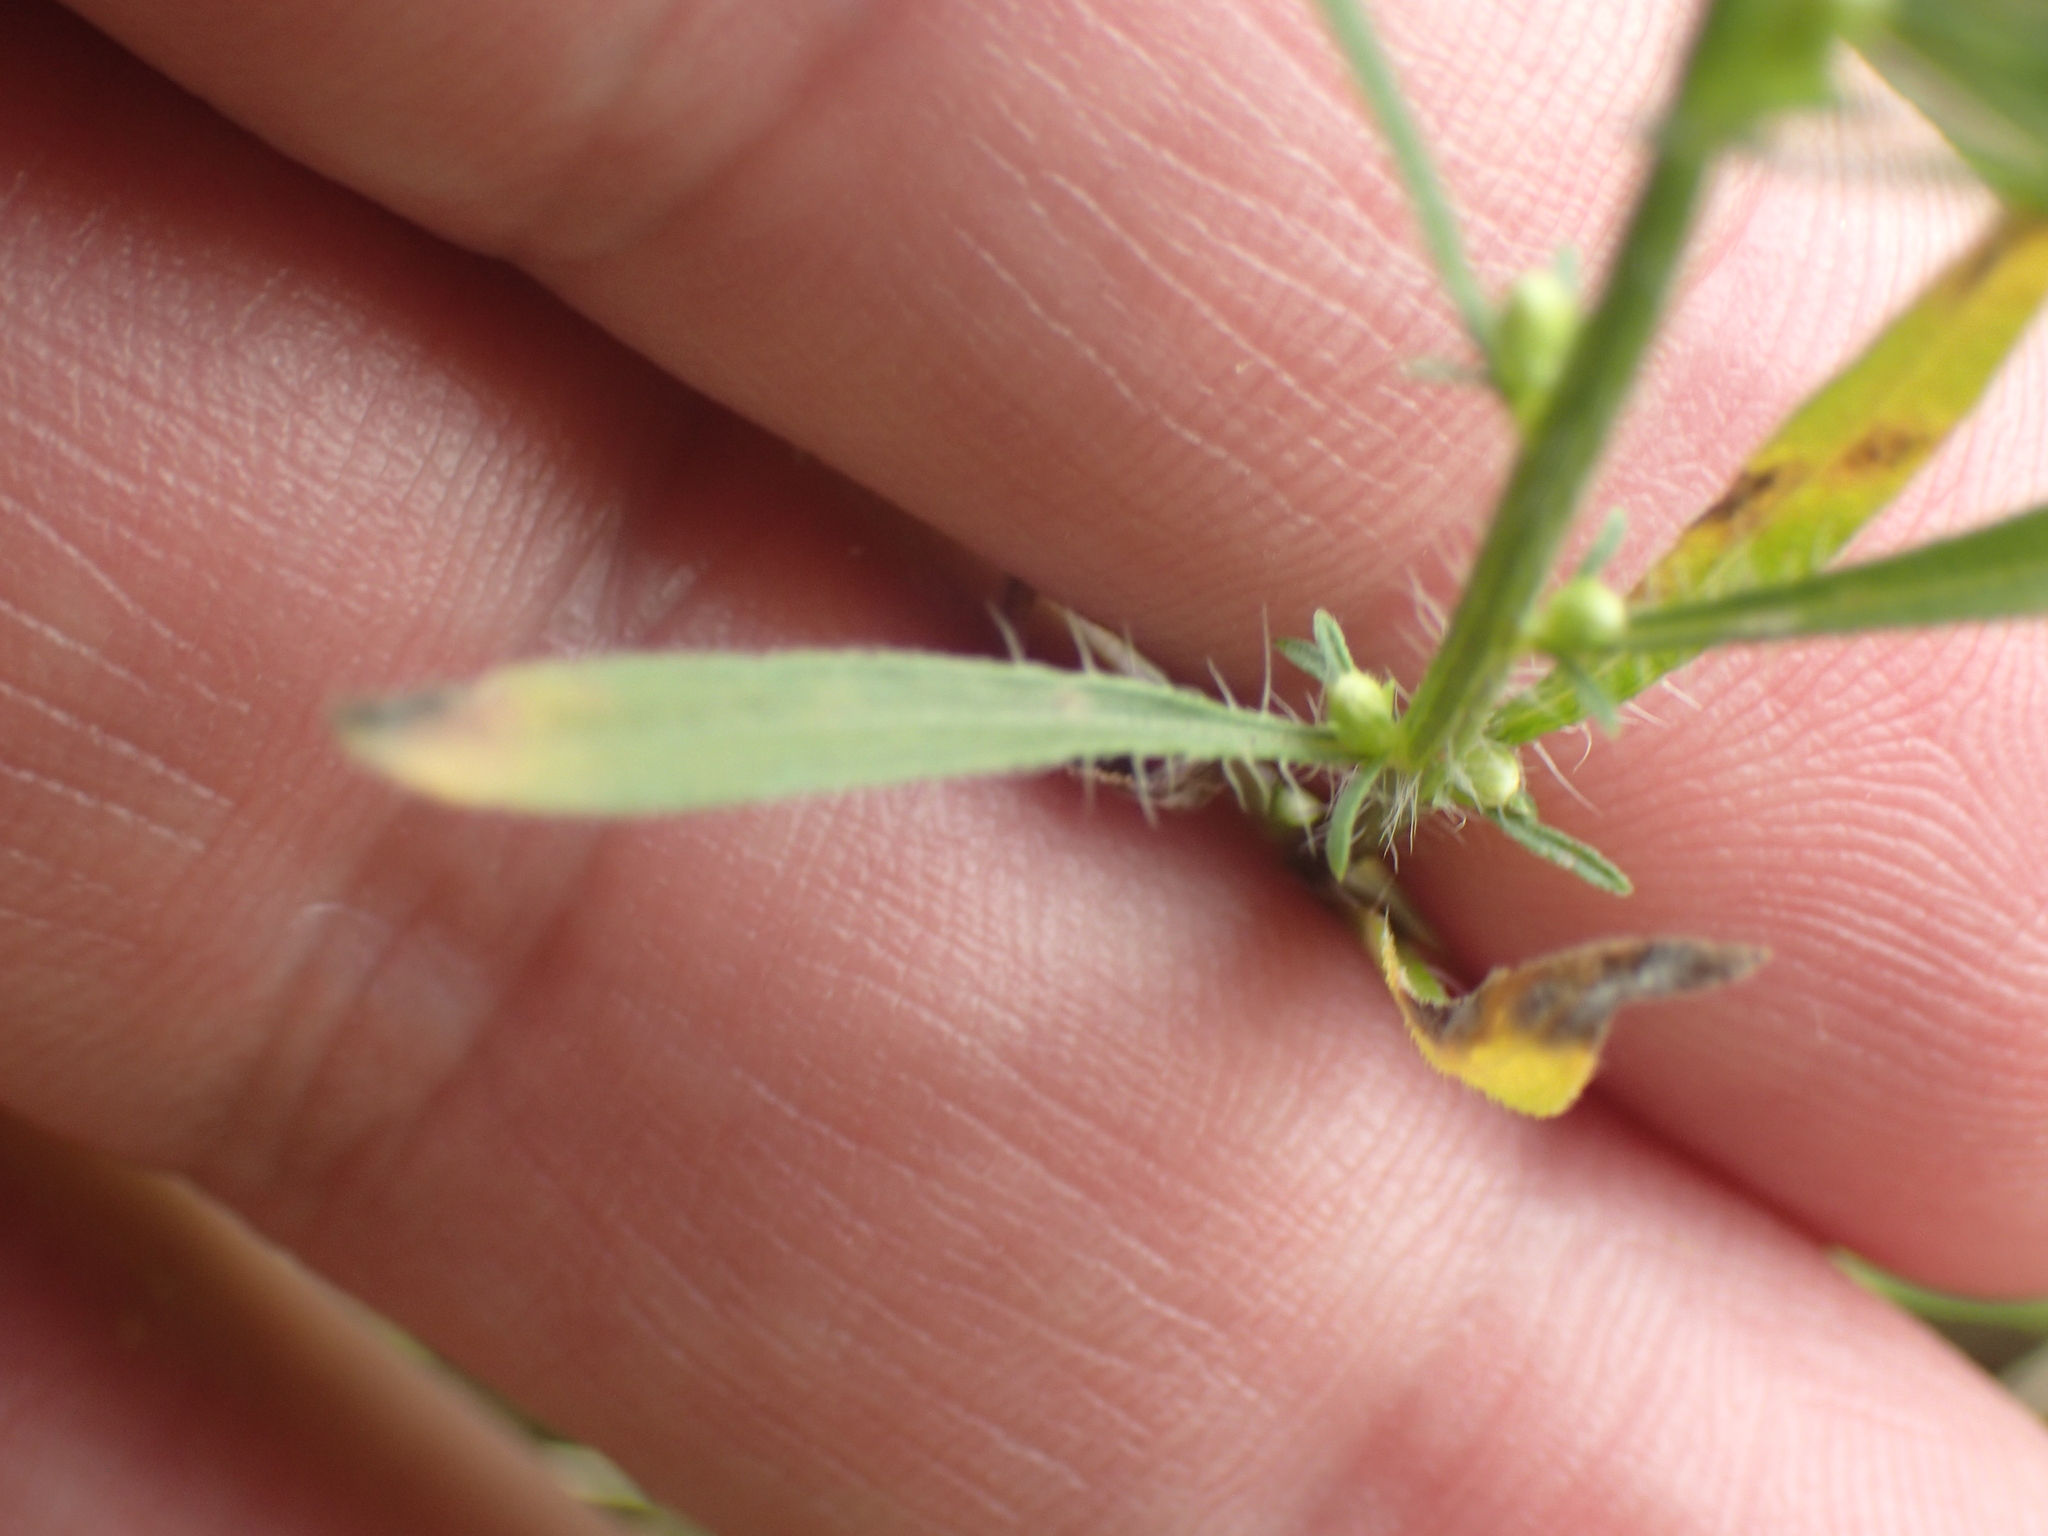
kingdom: Plantae
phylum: Tracheophyta
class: Magnoliopsida
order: Asterales
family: Asteraceae
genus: Erigeron
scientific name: Erigeron canadensis
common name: Canadian fleabane
